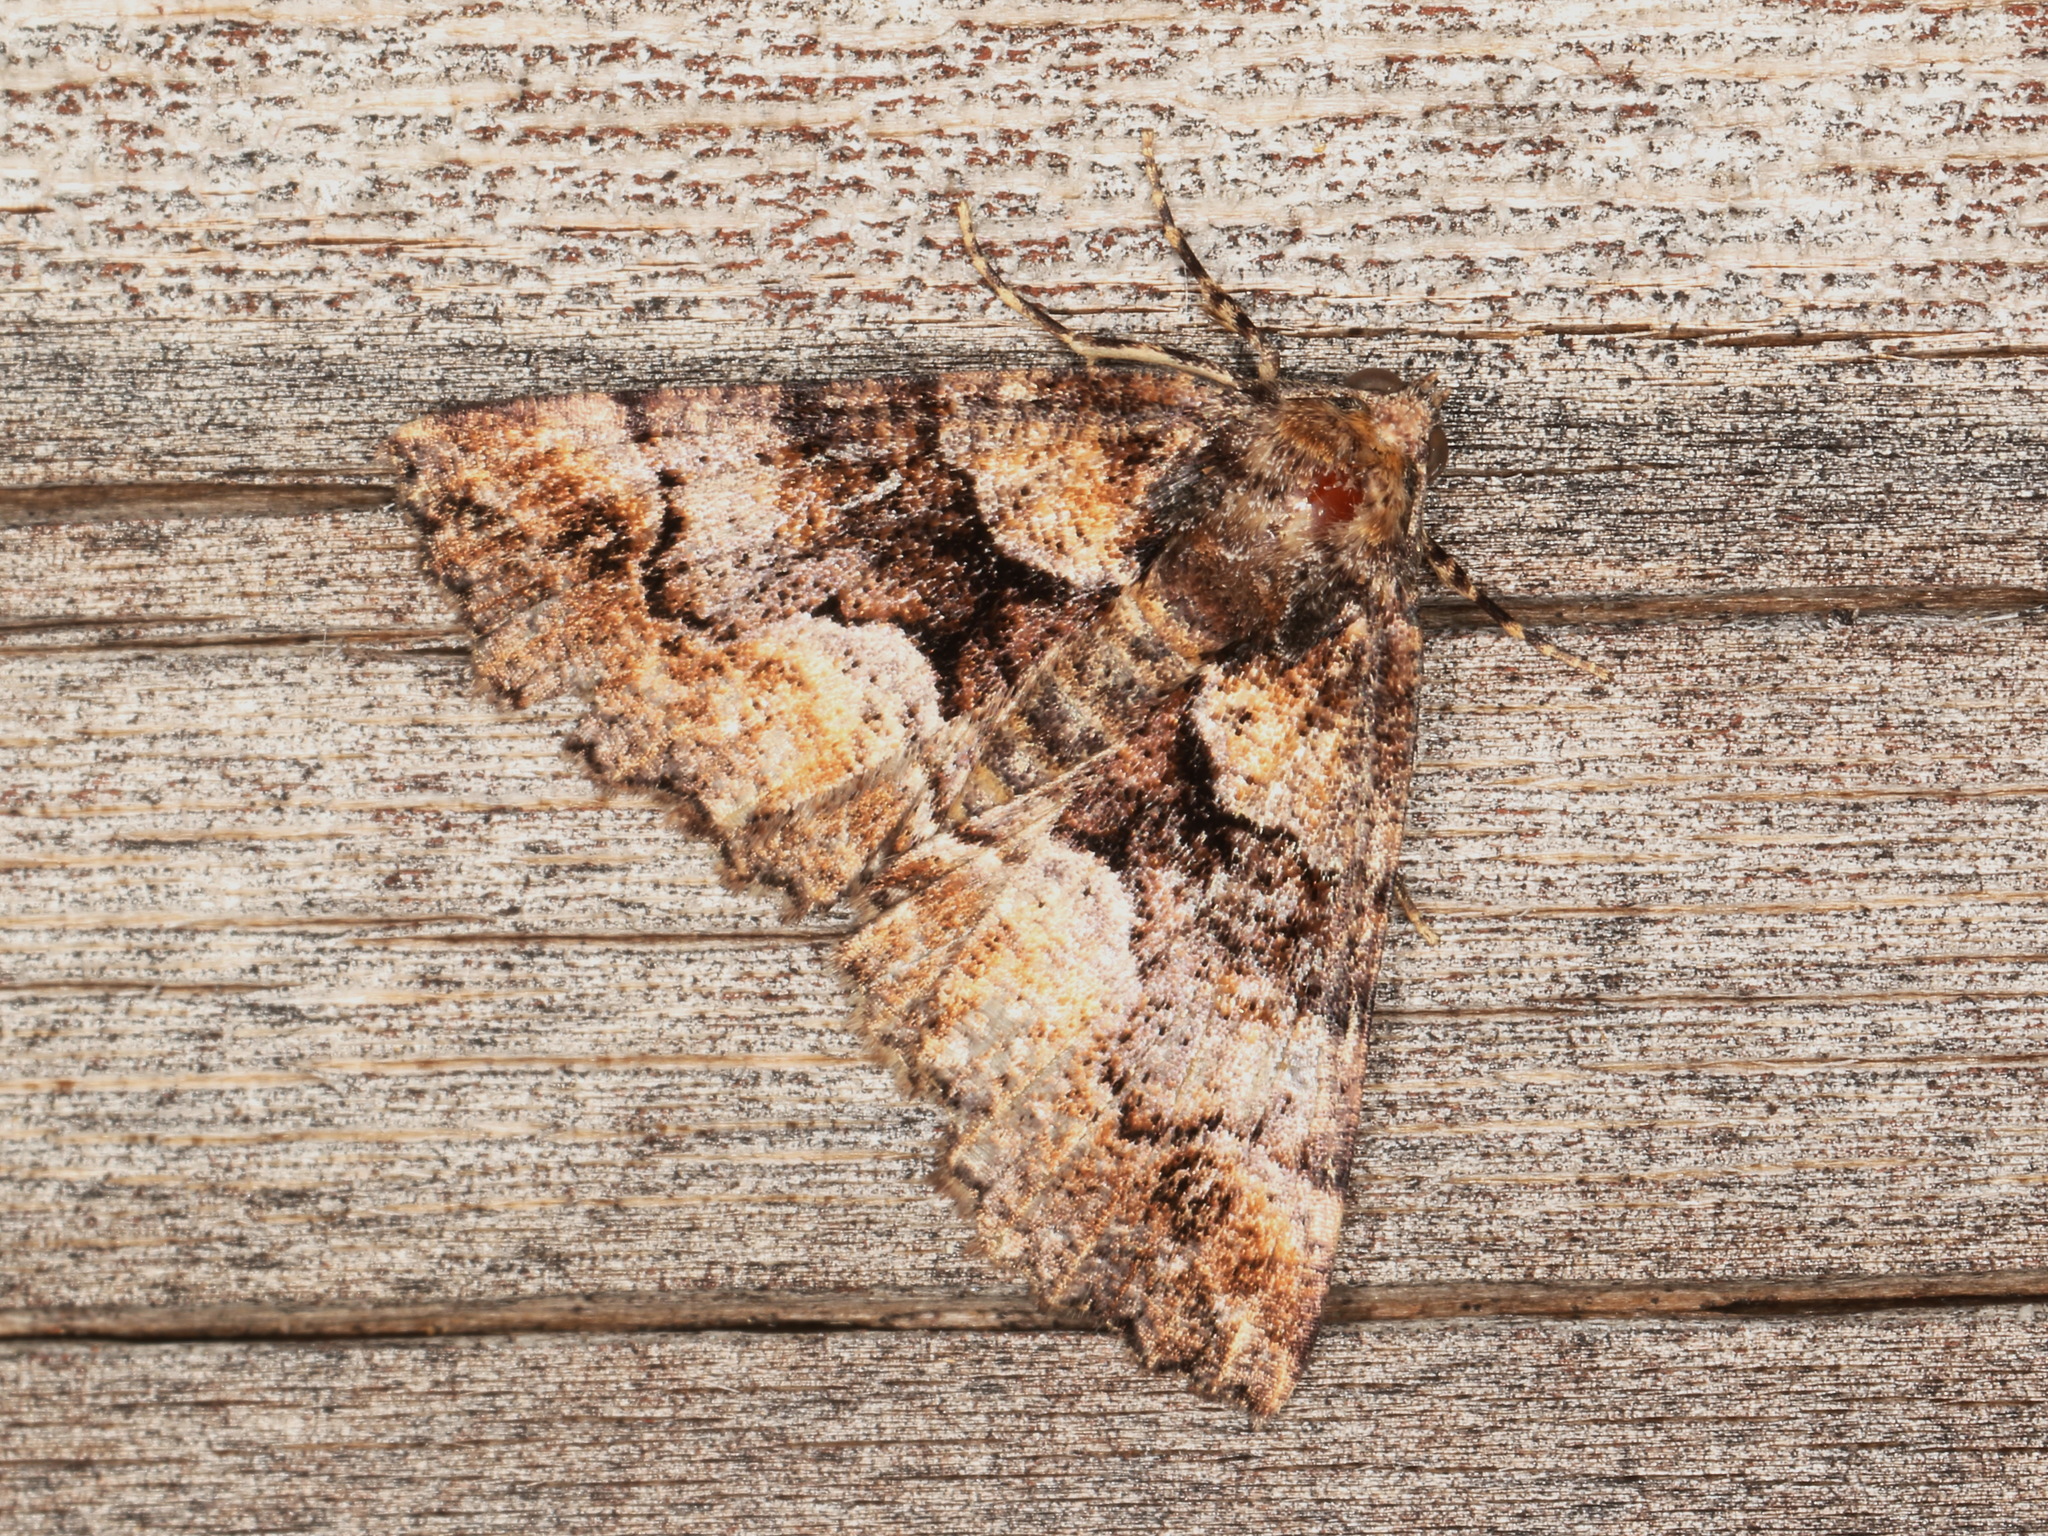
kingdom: Animalia
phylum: Arthropoda
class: Insecta
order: Lepidoptera
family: Geometridae
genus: Gastrina
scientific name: Gastrina cristaria
